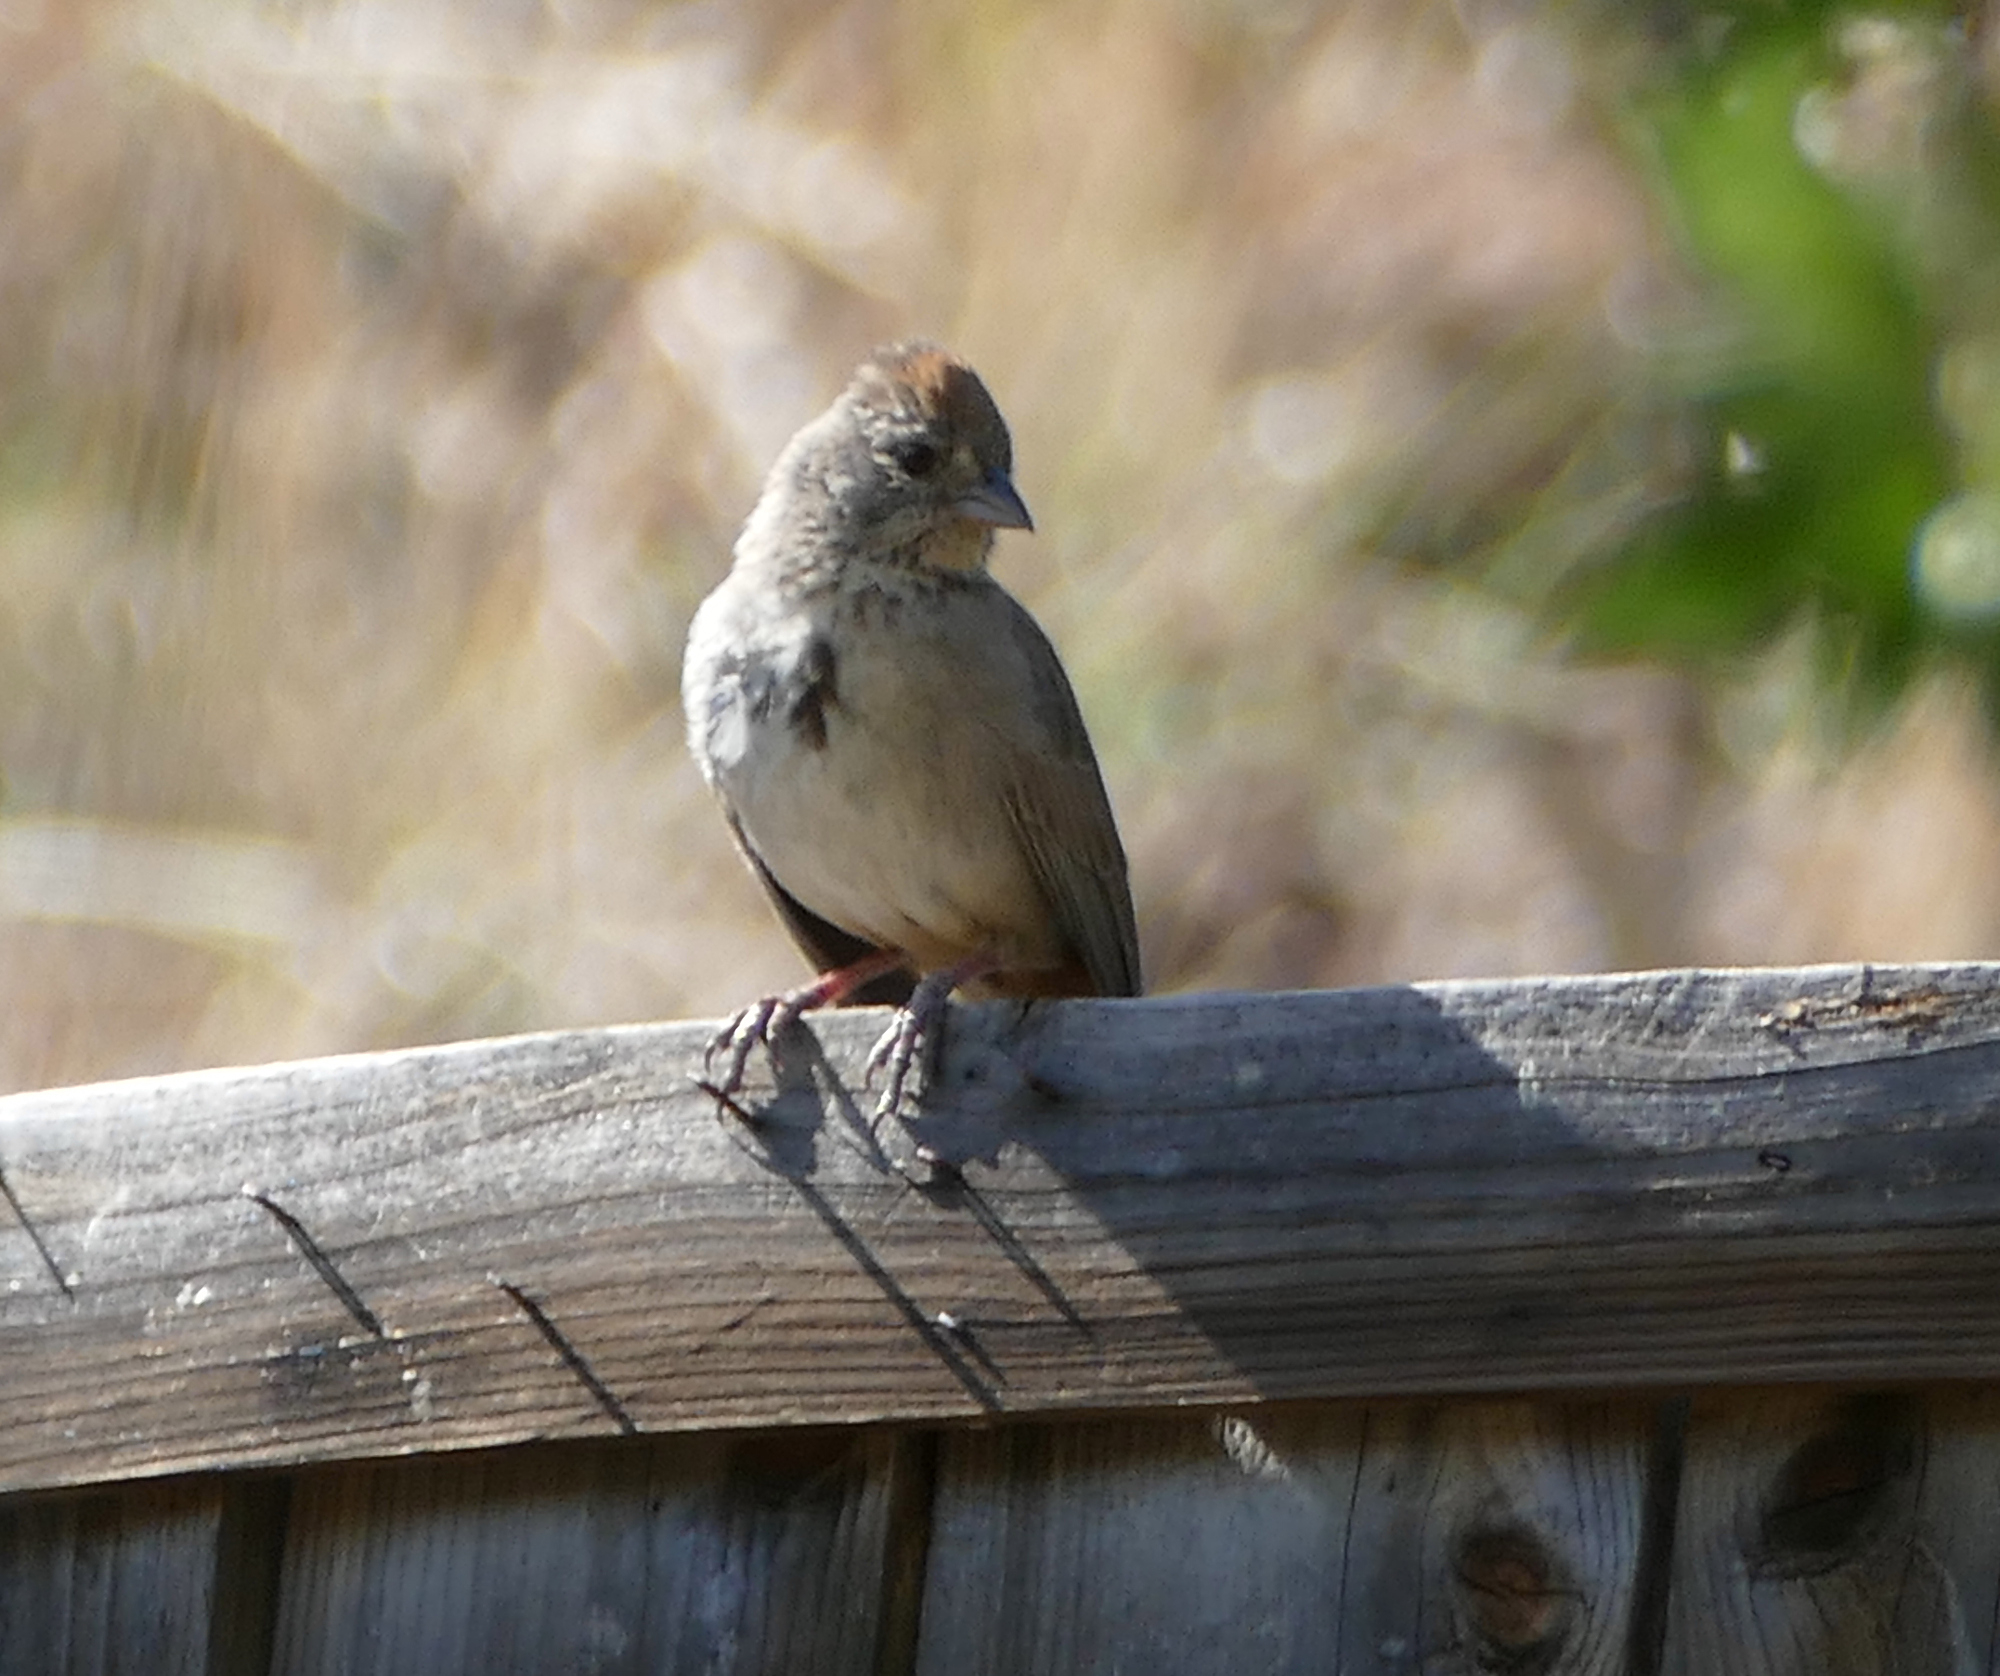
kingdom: Animalia
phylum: Chordata
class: Aves
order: Passeriformes
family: Passerellidae
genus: Melozone
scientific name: Melozone fusca
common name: Canyon towhee
